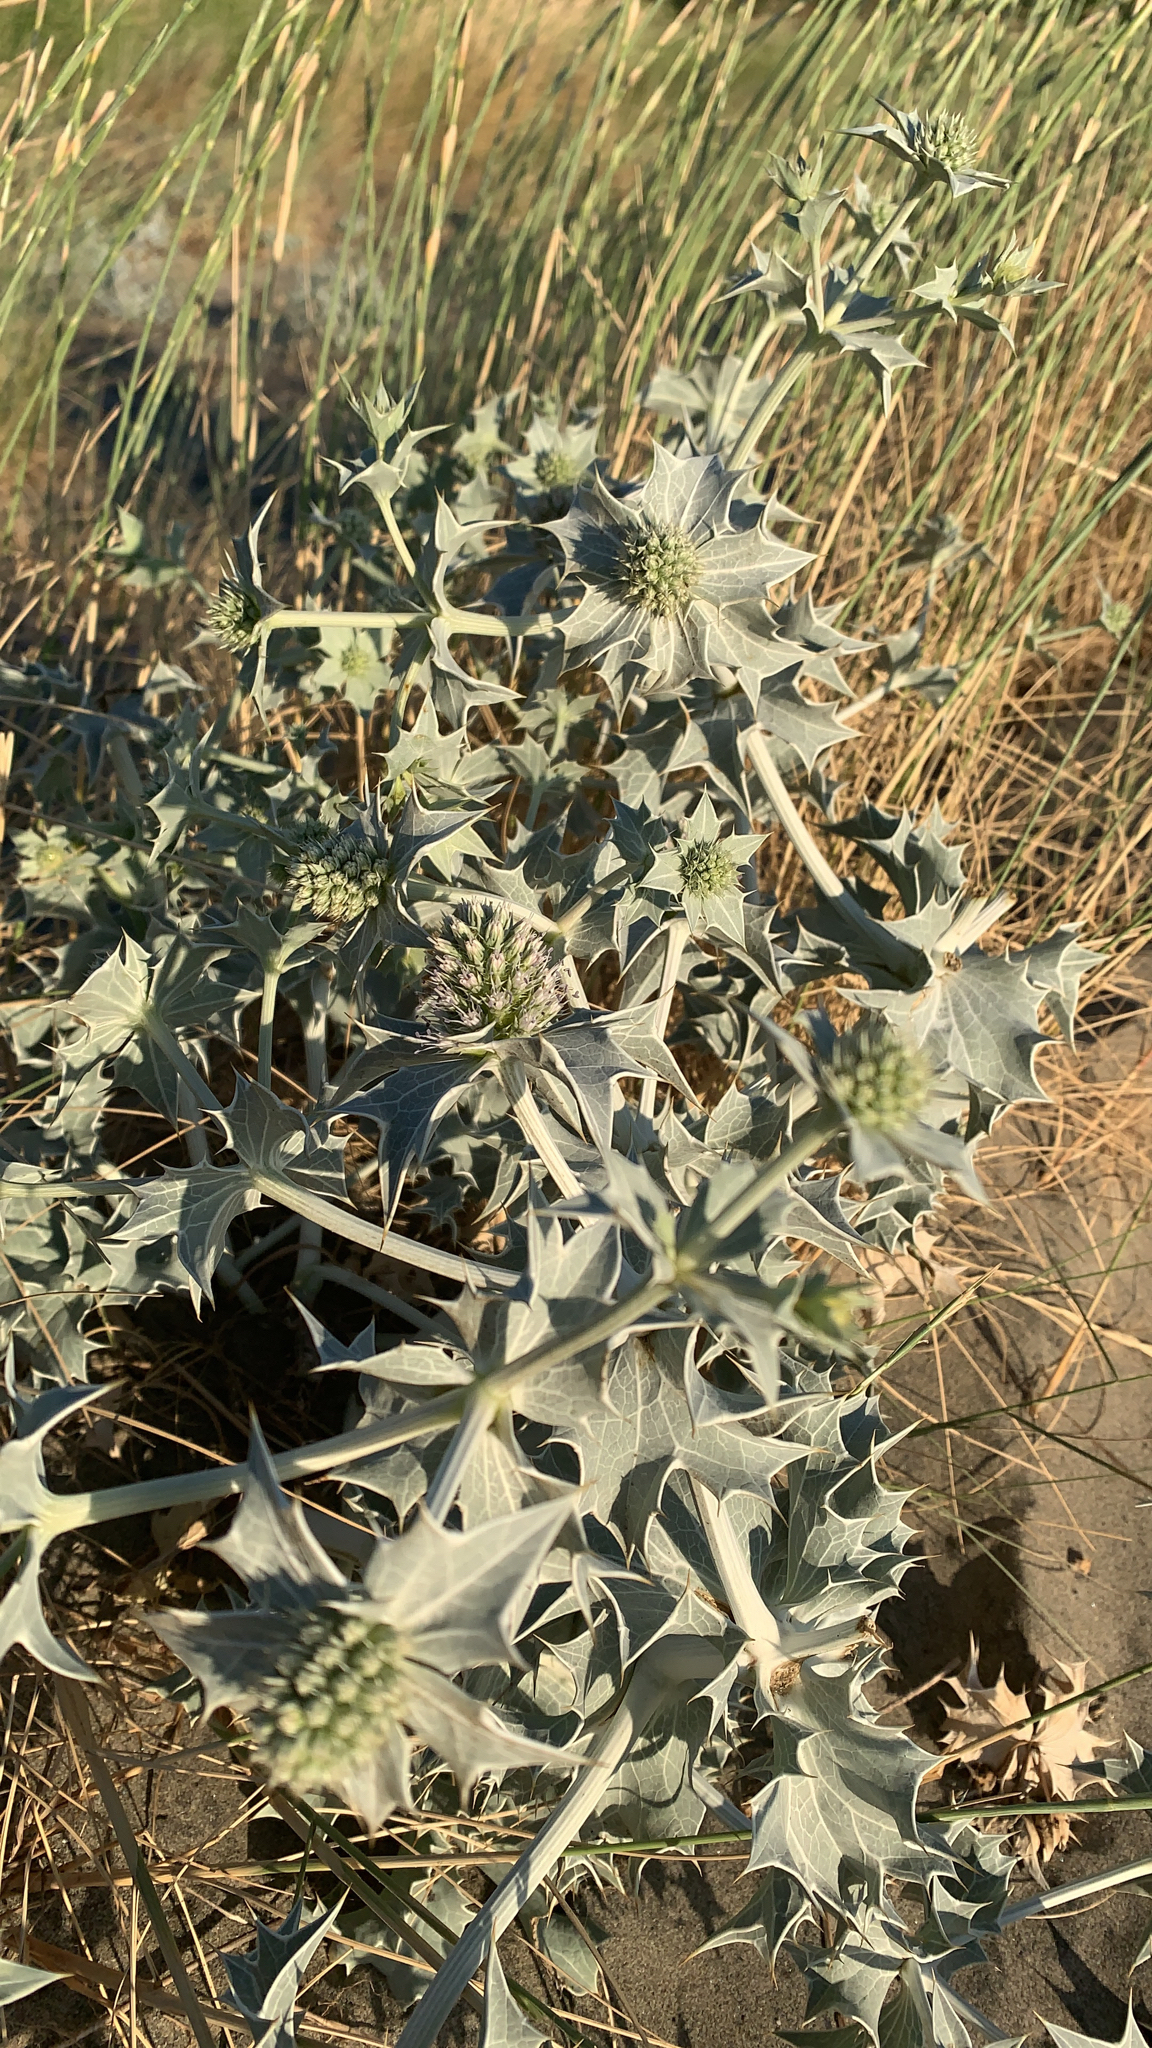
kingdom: Plantae
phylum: Tracheophyta
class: Magnoliopsida
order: Apiales
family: Apiaceae
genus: Eryngium
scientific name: Eryngium maritimum
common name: Sea-holly
